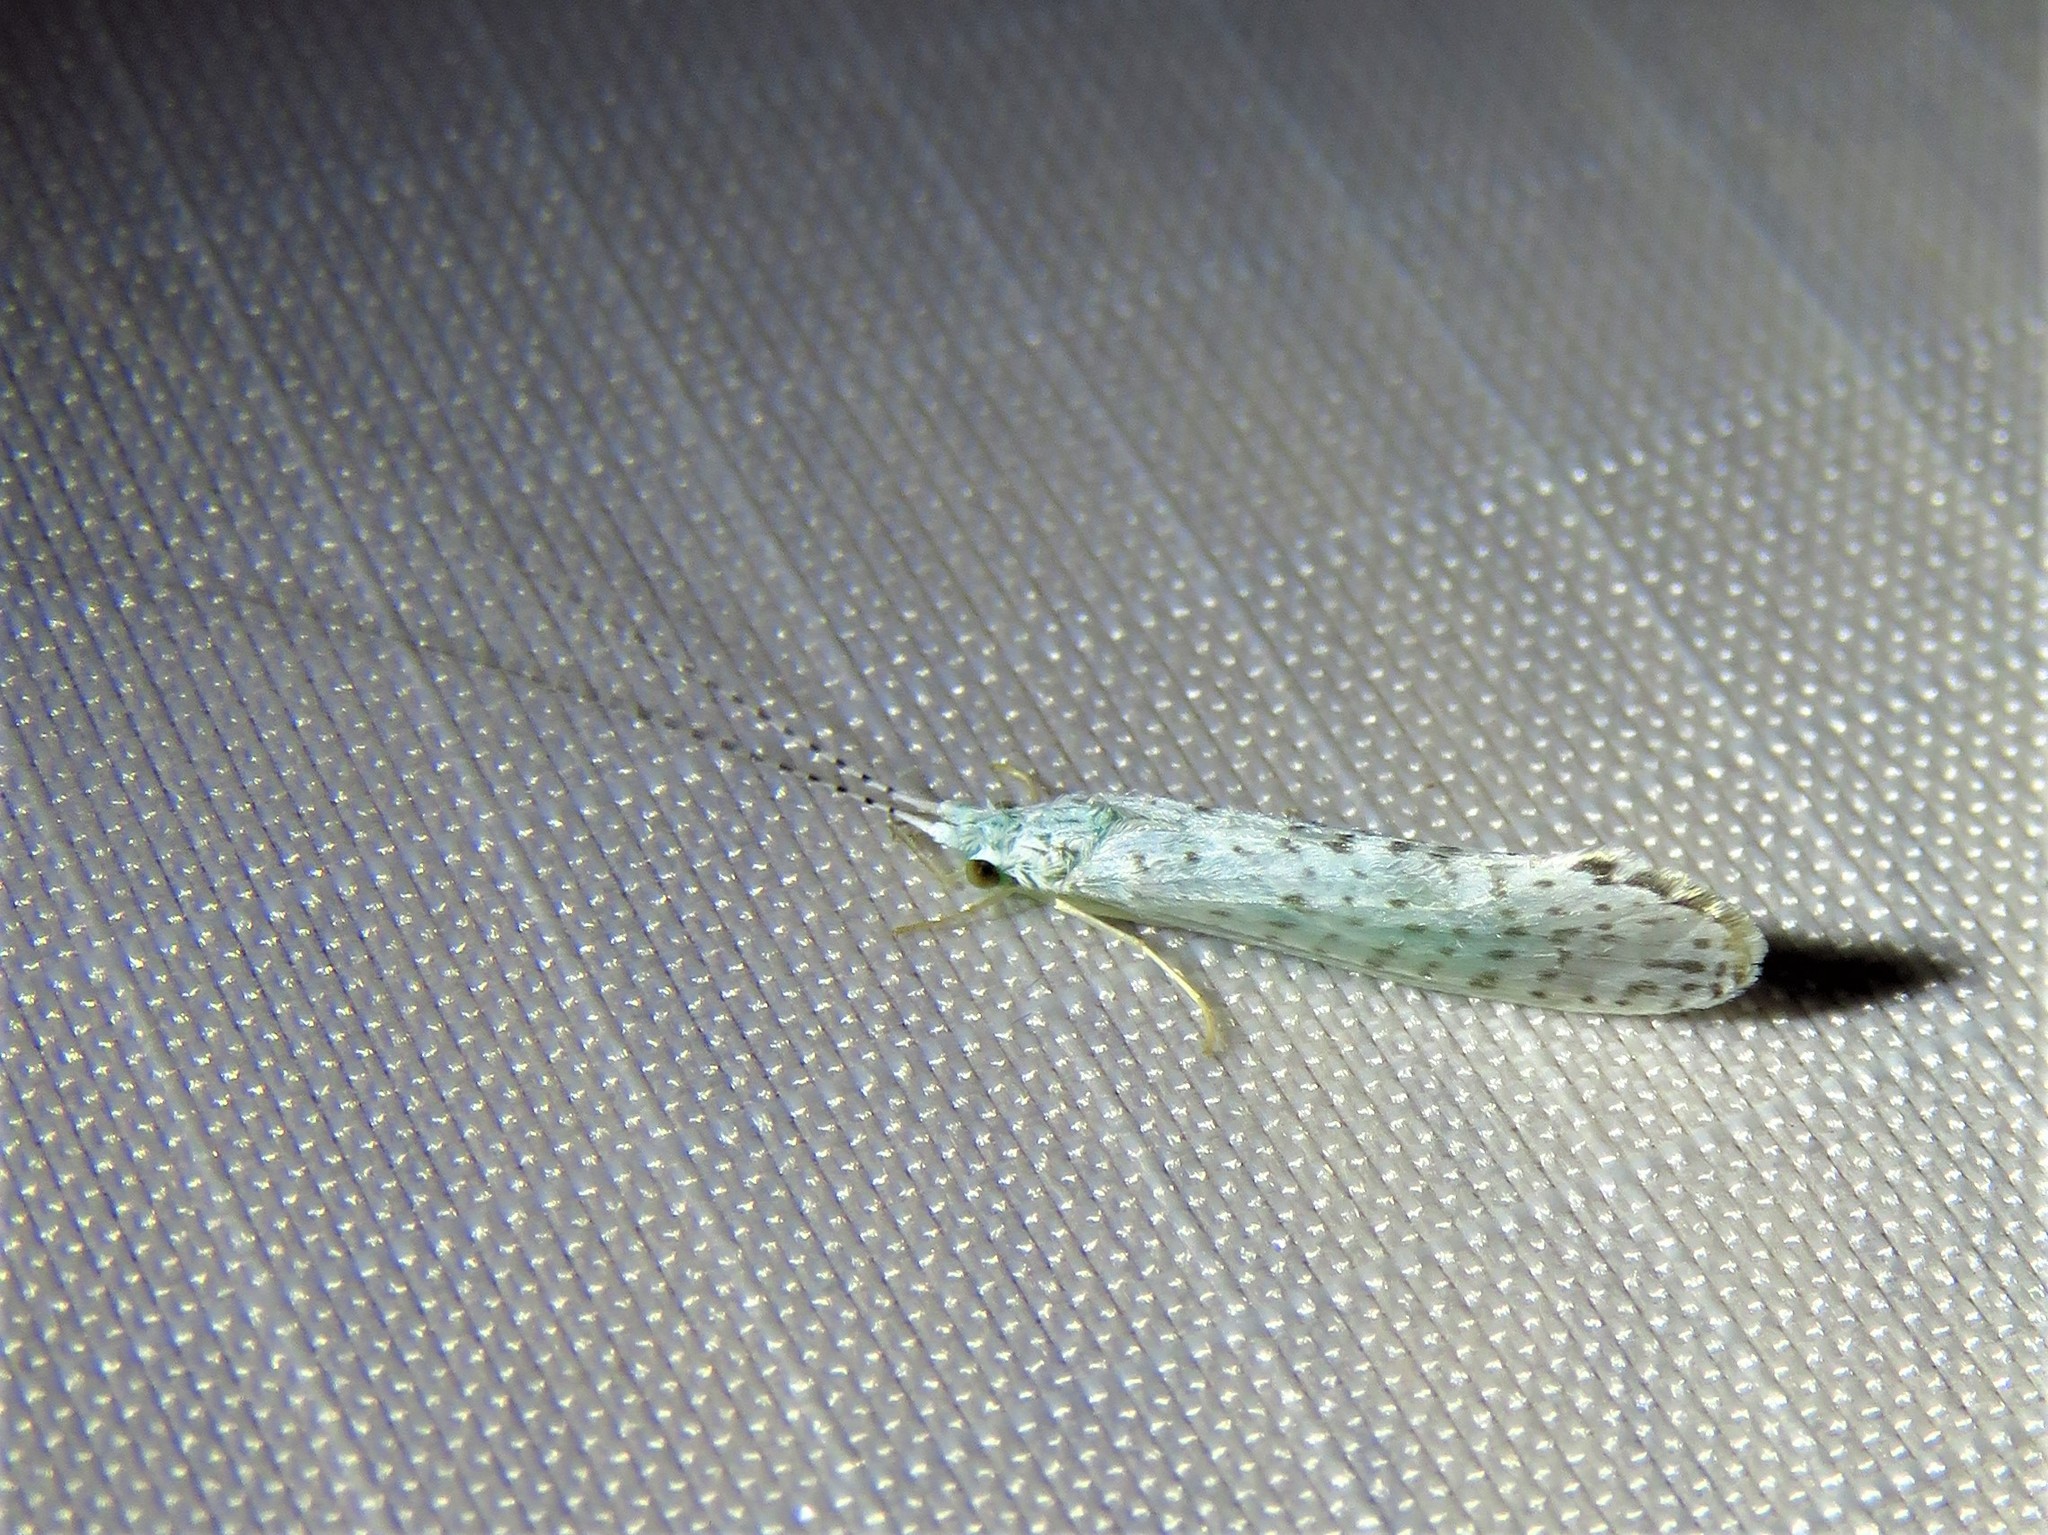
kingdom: Animalia
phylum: Arthropoda
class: Insecta
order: Trichoptera
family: Leptoceridae
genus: Nectopsyche
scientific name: Nectopsyche candida
